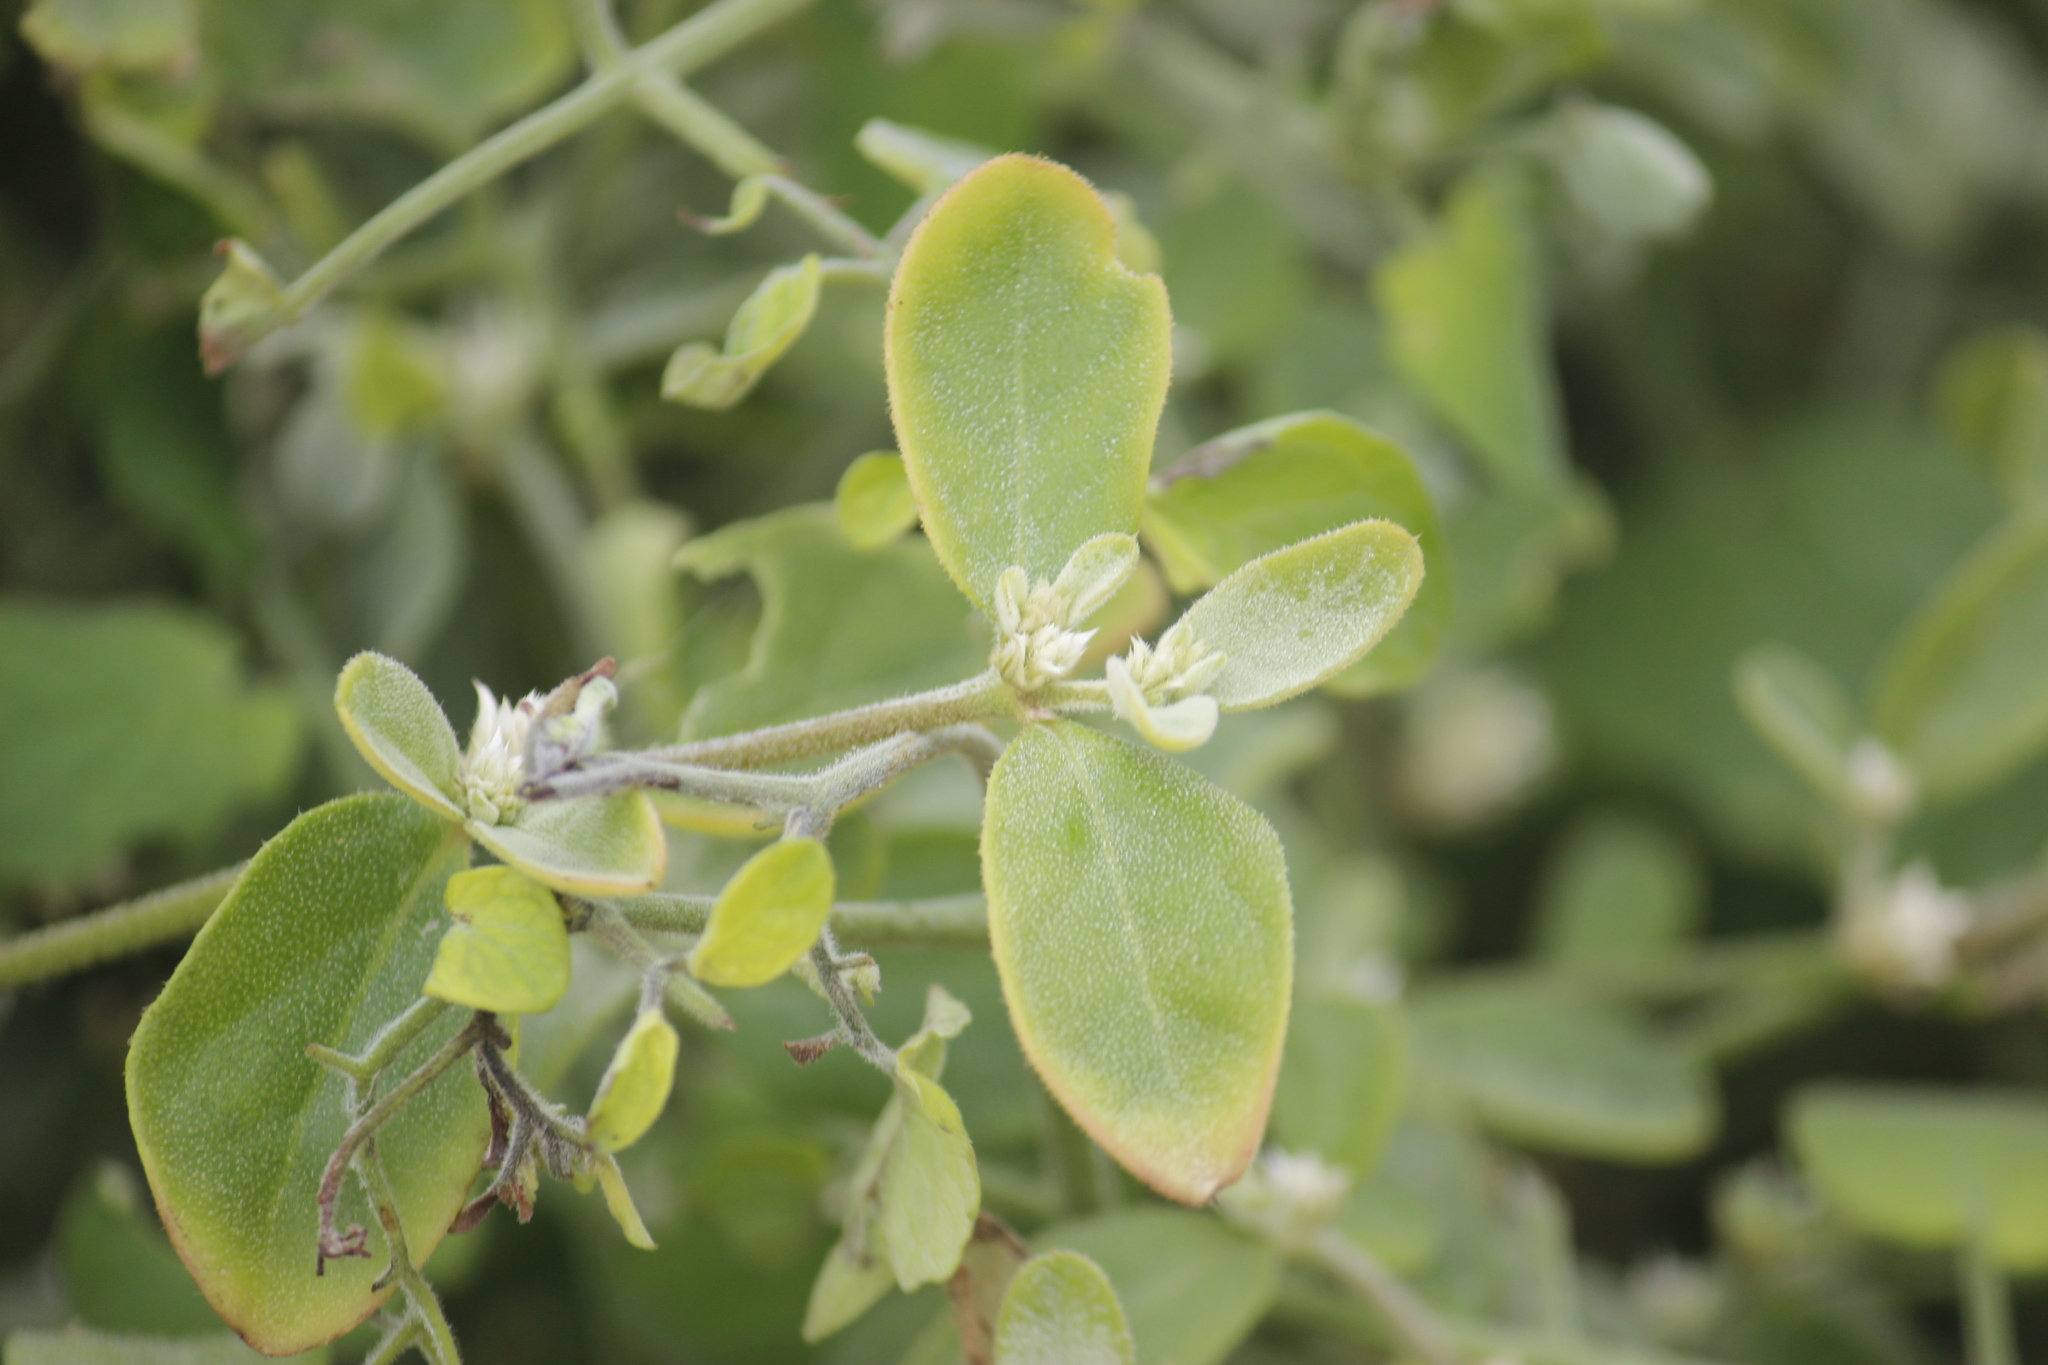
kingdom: Plantae
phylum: Tracheophyta
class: Magnoliopsida
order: Caryophyllales
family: Amaranthaceae
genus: Alternanthera
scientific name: Alternanthera halimifolia
